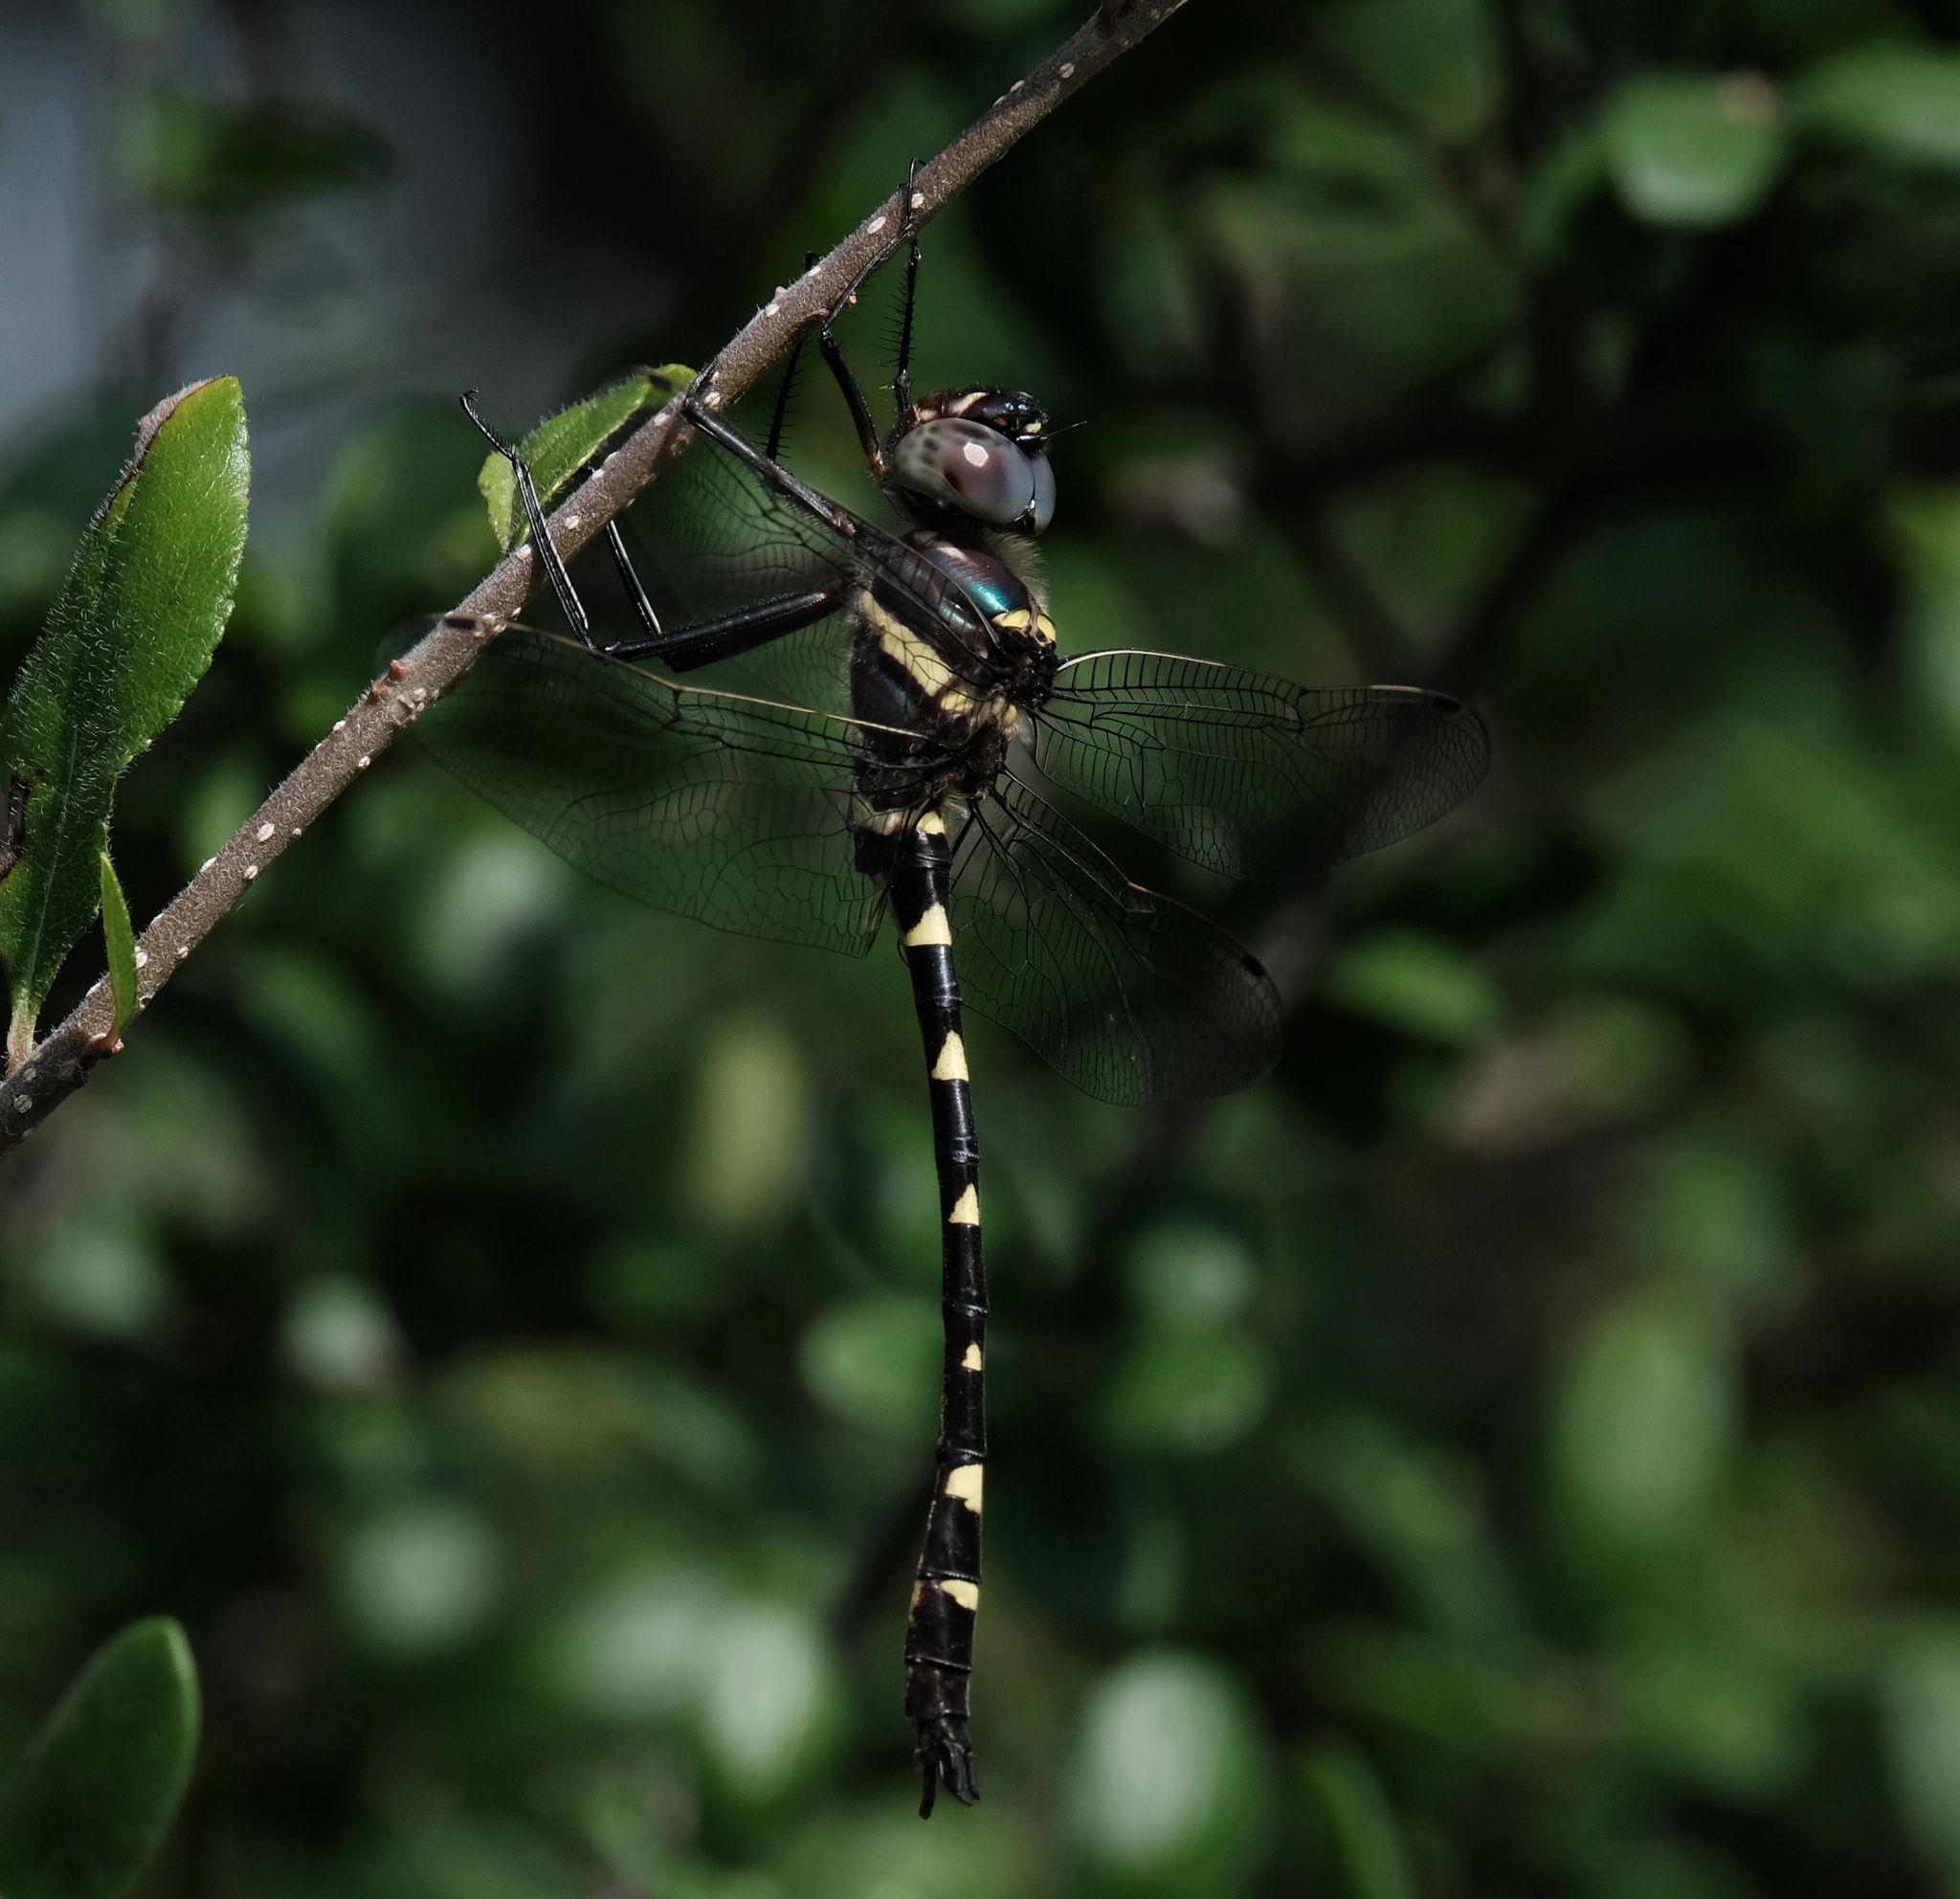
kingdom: Animalia
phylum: Arthropoda
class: Insecta
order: Odonata
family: Macromiidae
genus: Macromia
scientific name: Macromia illinoiensis
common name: Swift river cruiser
